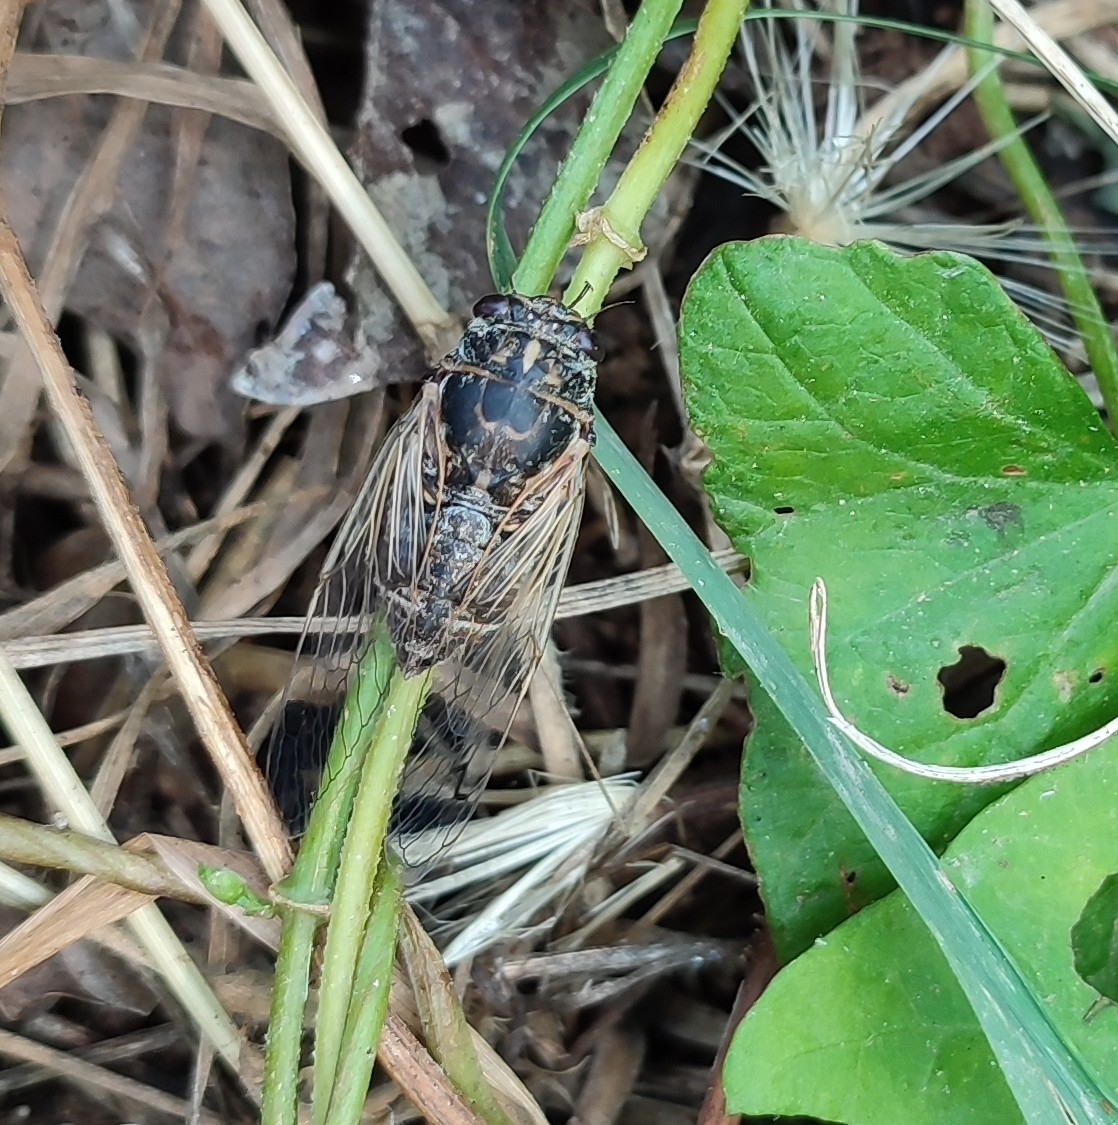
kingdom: Animalia
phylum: Arthropoda
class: Insecta
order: Hemiptera
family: Cicadidae
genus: Cicadatra
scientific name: Cicadatra atra
